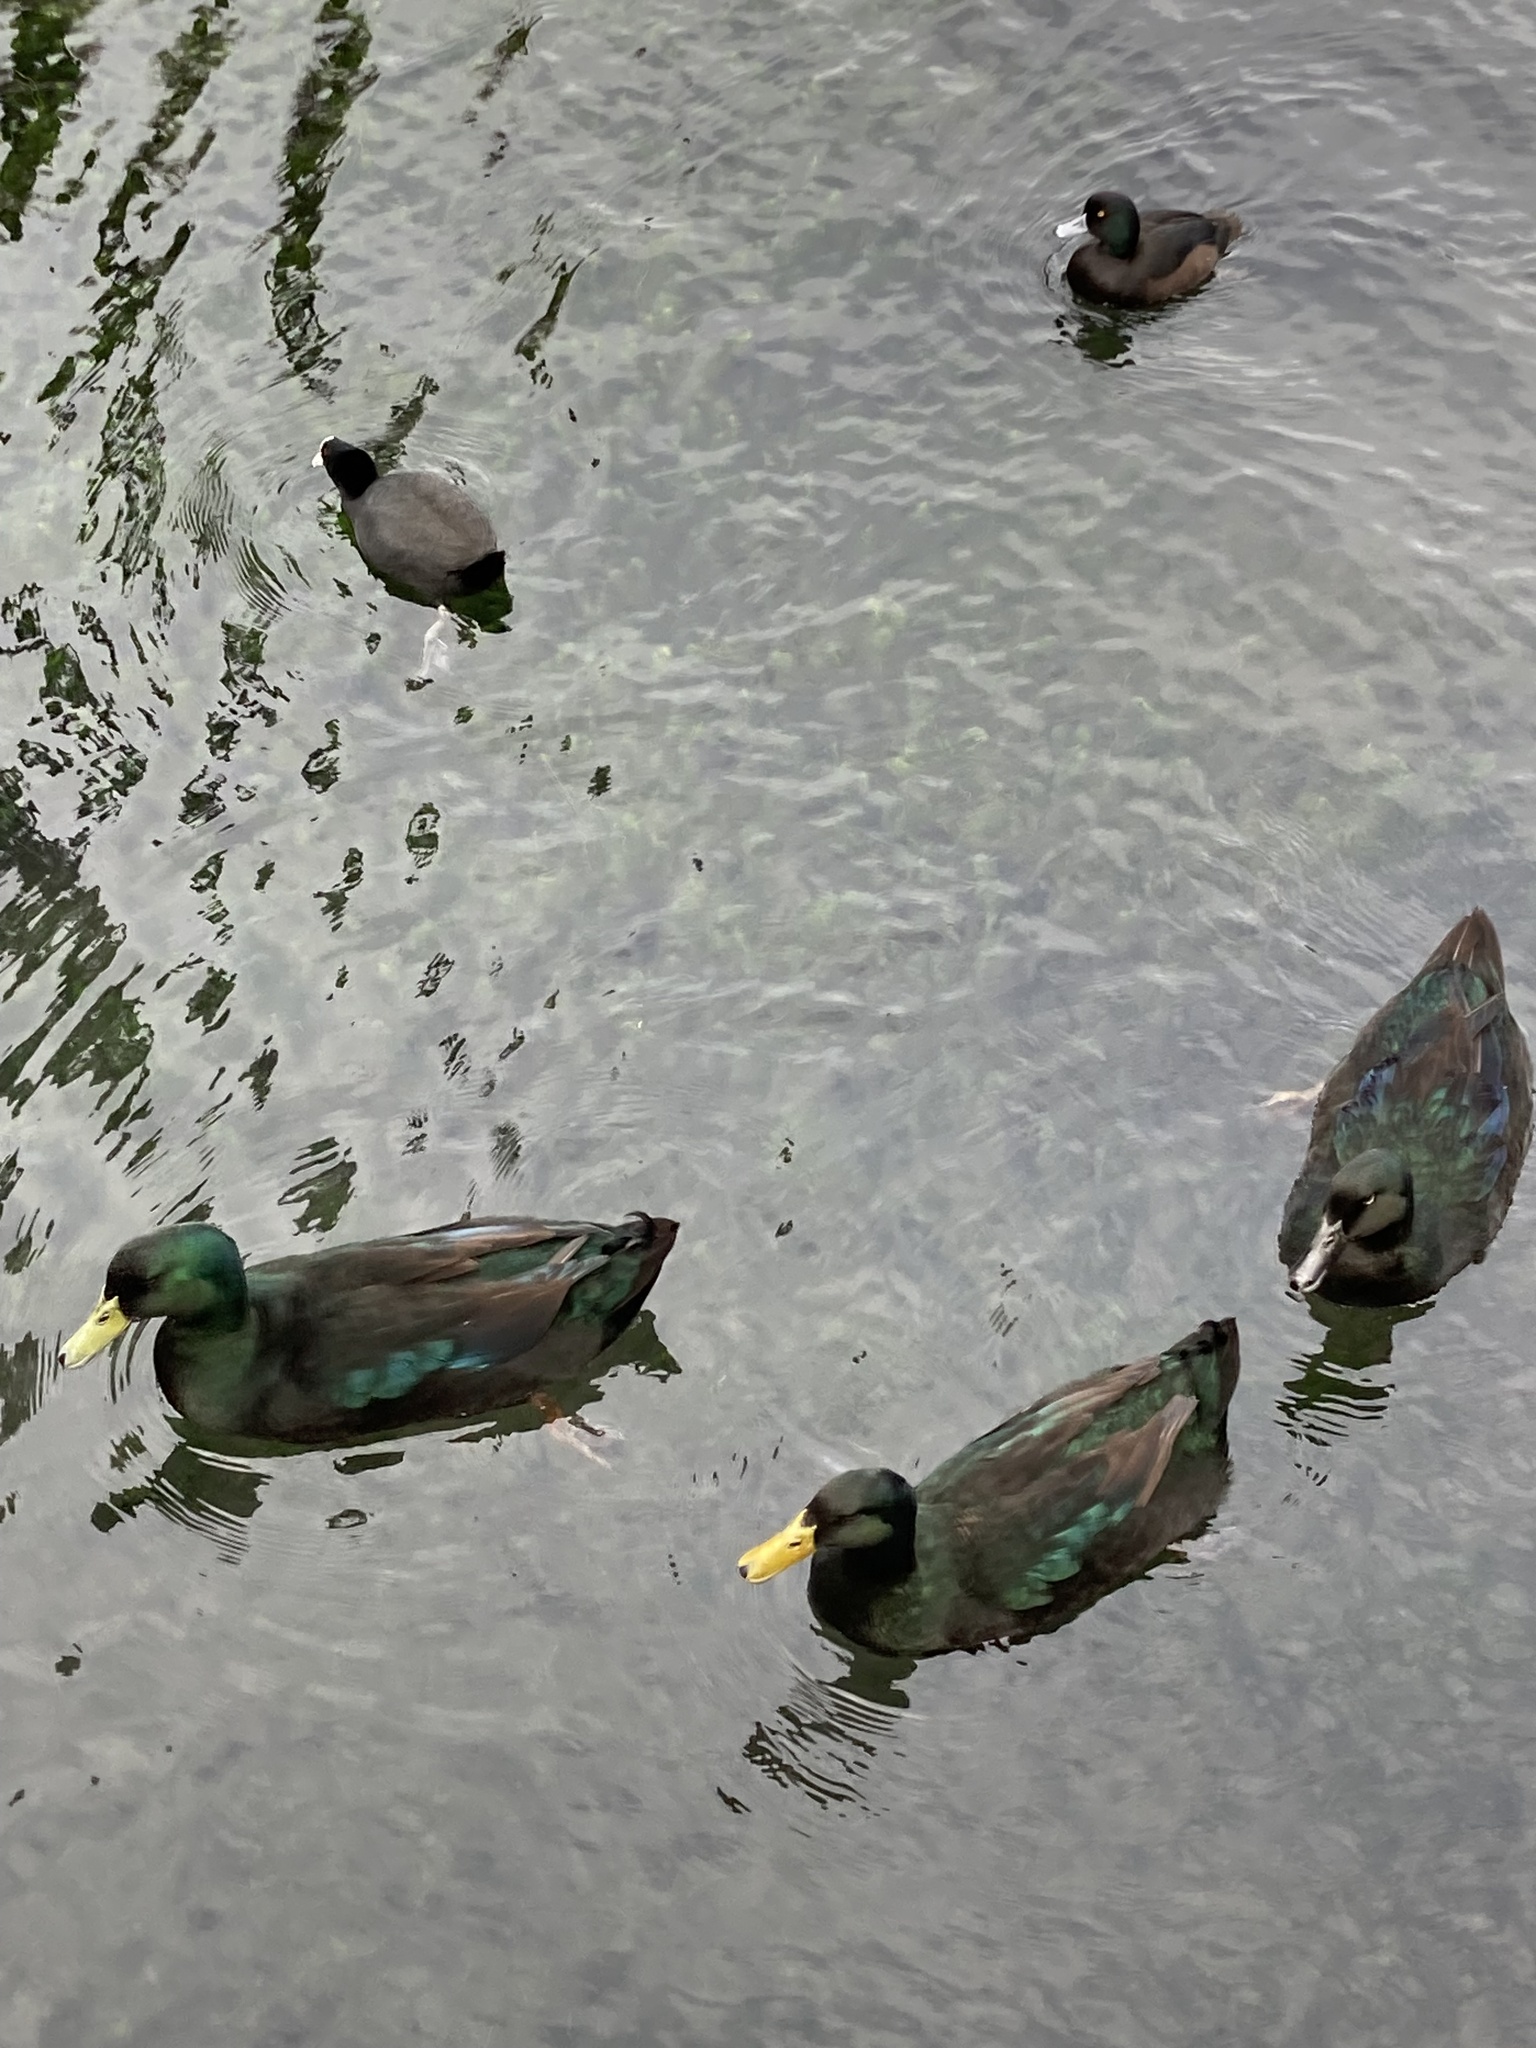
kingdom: Animalia
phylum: Chordata
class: Aves
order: Anseriformes
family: Anatidae
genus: Anas
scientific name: Anas platyrhynchos
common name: Mallard
